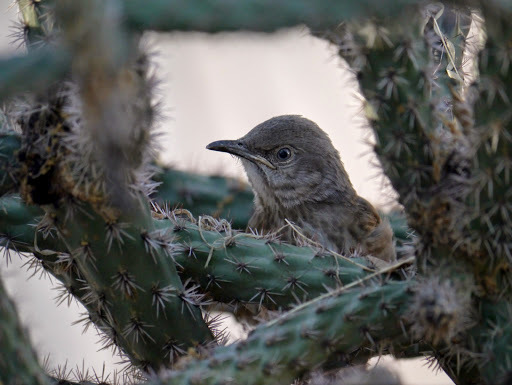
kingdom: Animalia
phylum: Chordata
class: Aves
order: Passeriformes
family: Mimidae
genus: Toxostoma
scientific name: Toxostoma curvirostre
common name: Curve-billed thrasher
